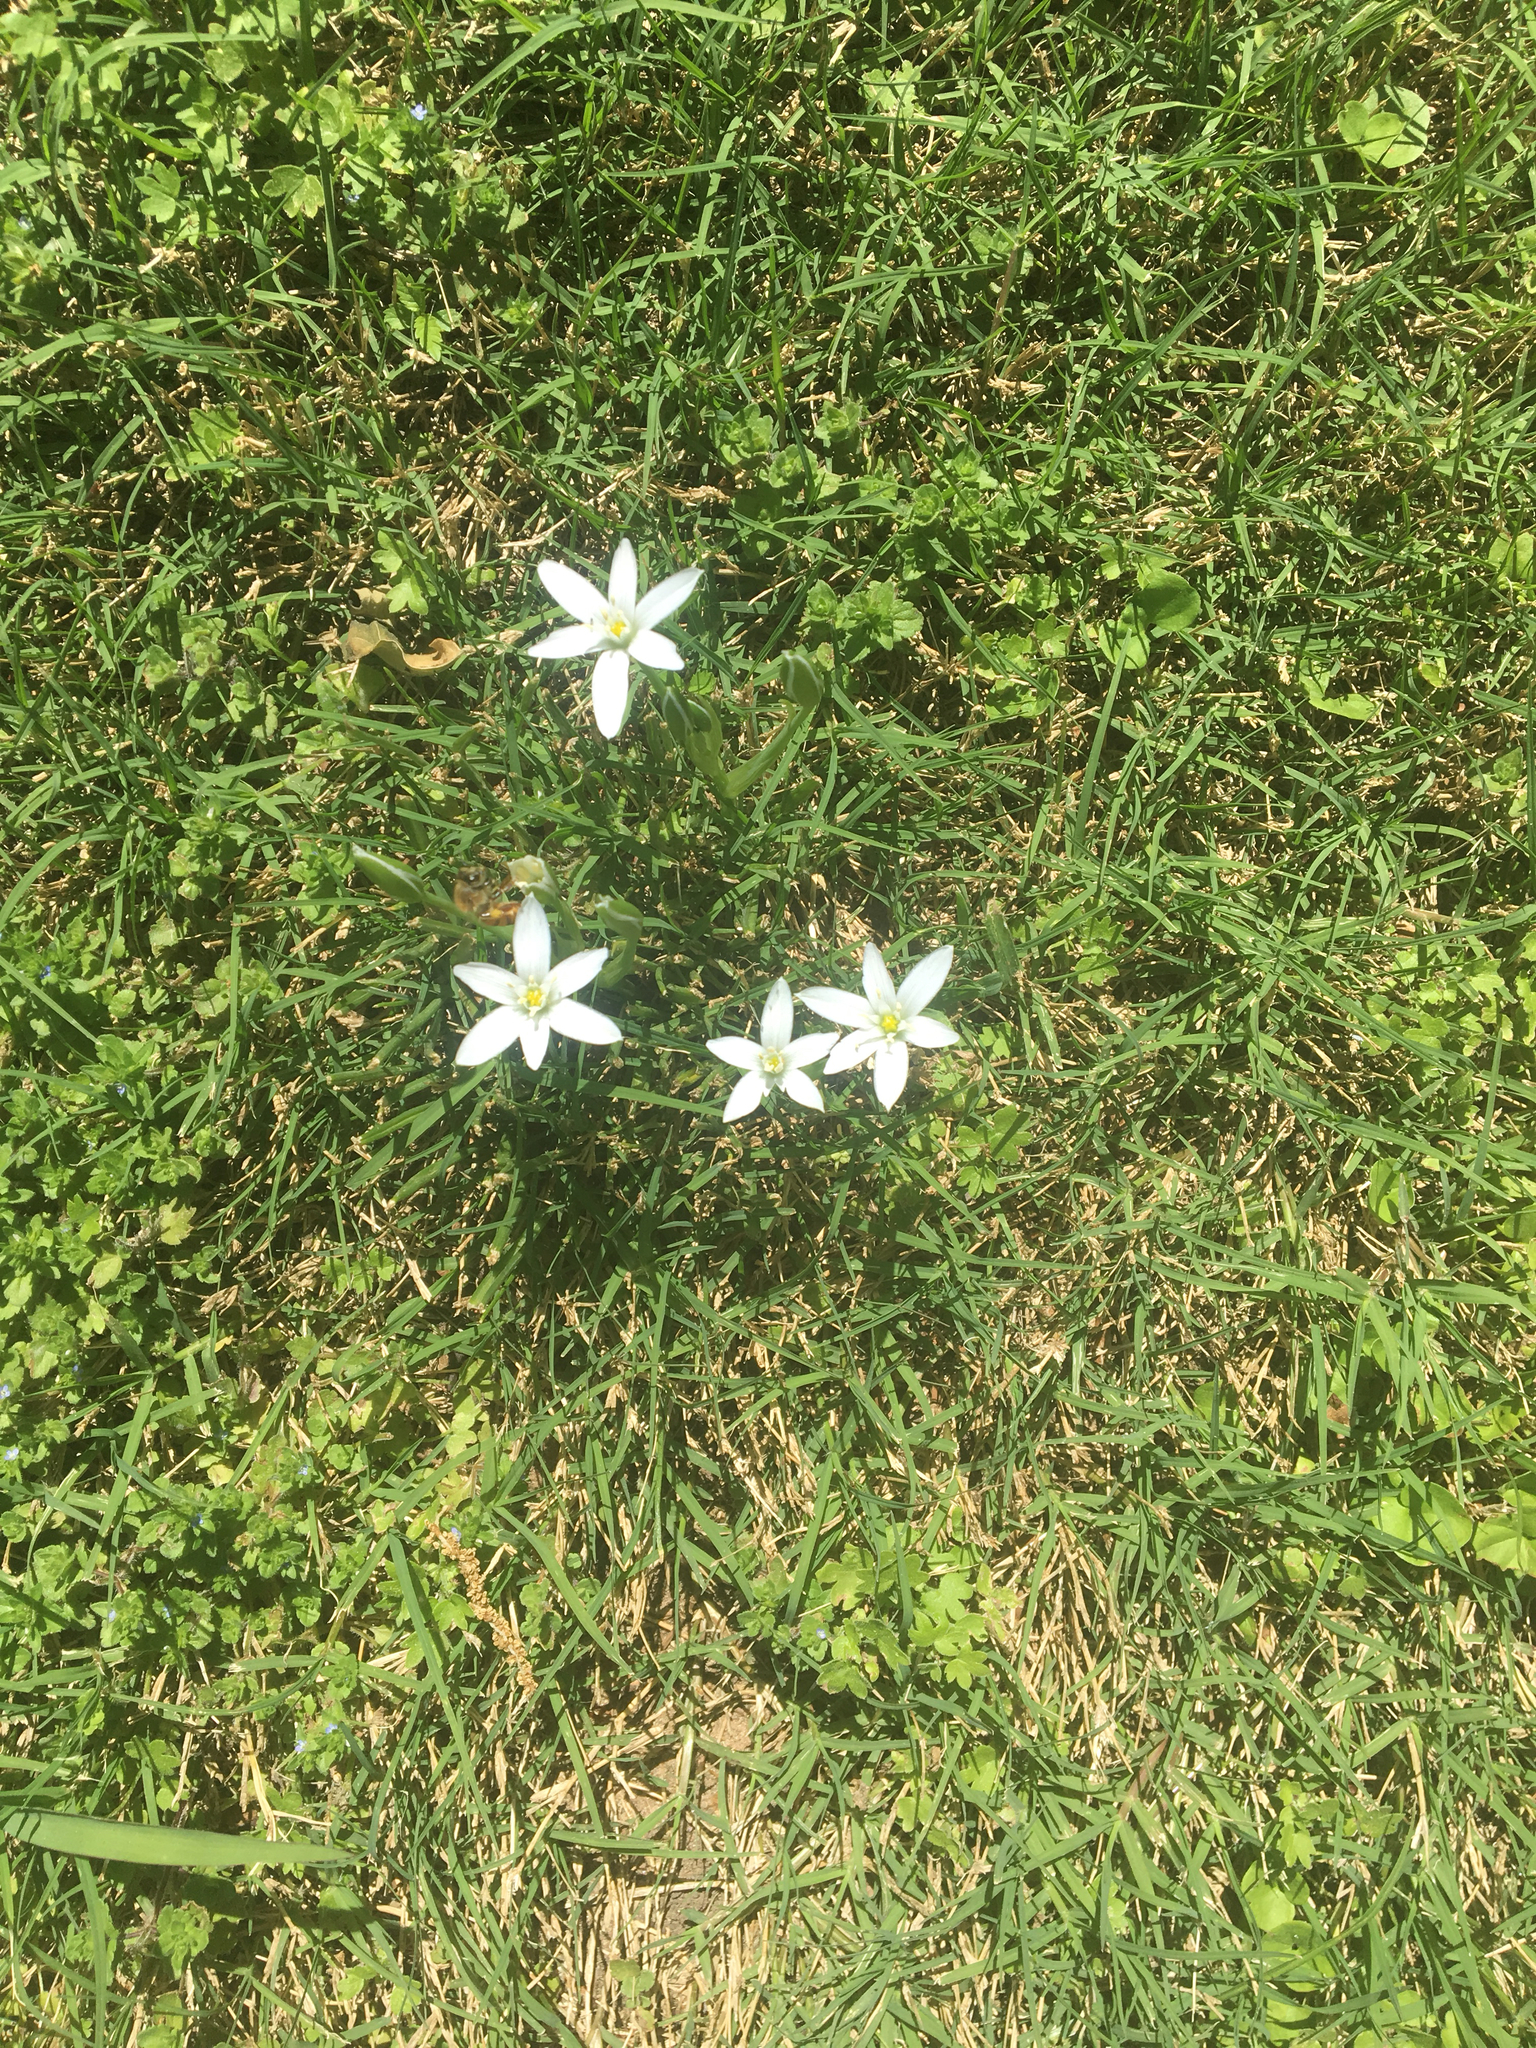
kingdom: Plantae
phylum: Tracheophyta
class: Liliopsida
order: Asparagales
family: Asparagaceae
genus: Ornithogalum
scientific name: Ornithogalum umbellatum
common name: Garden star-of-bethlehem
